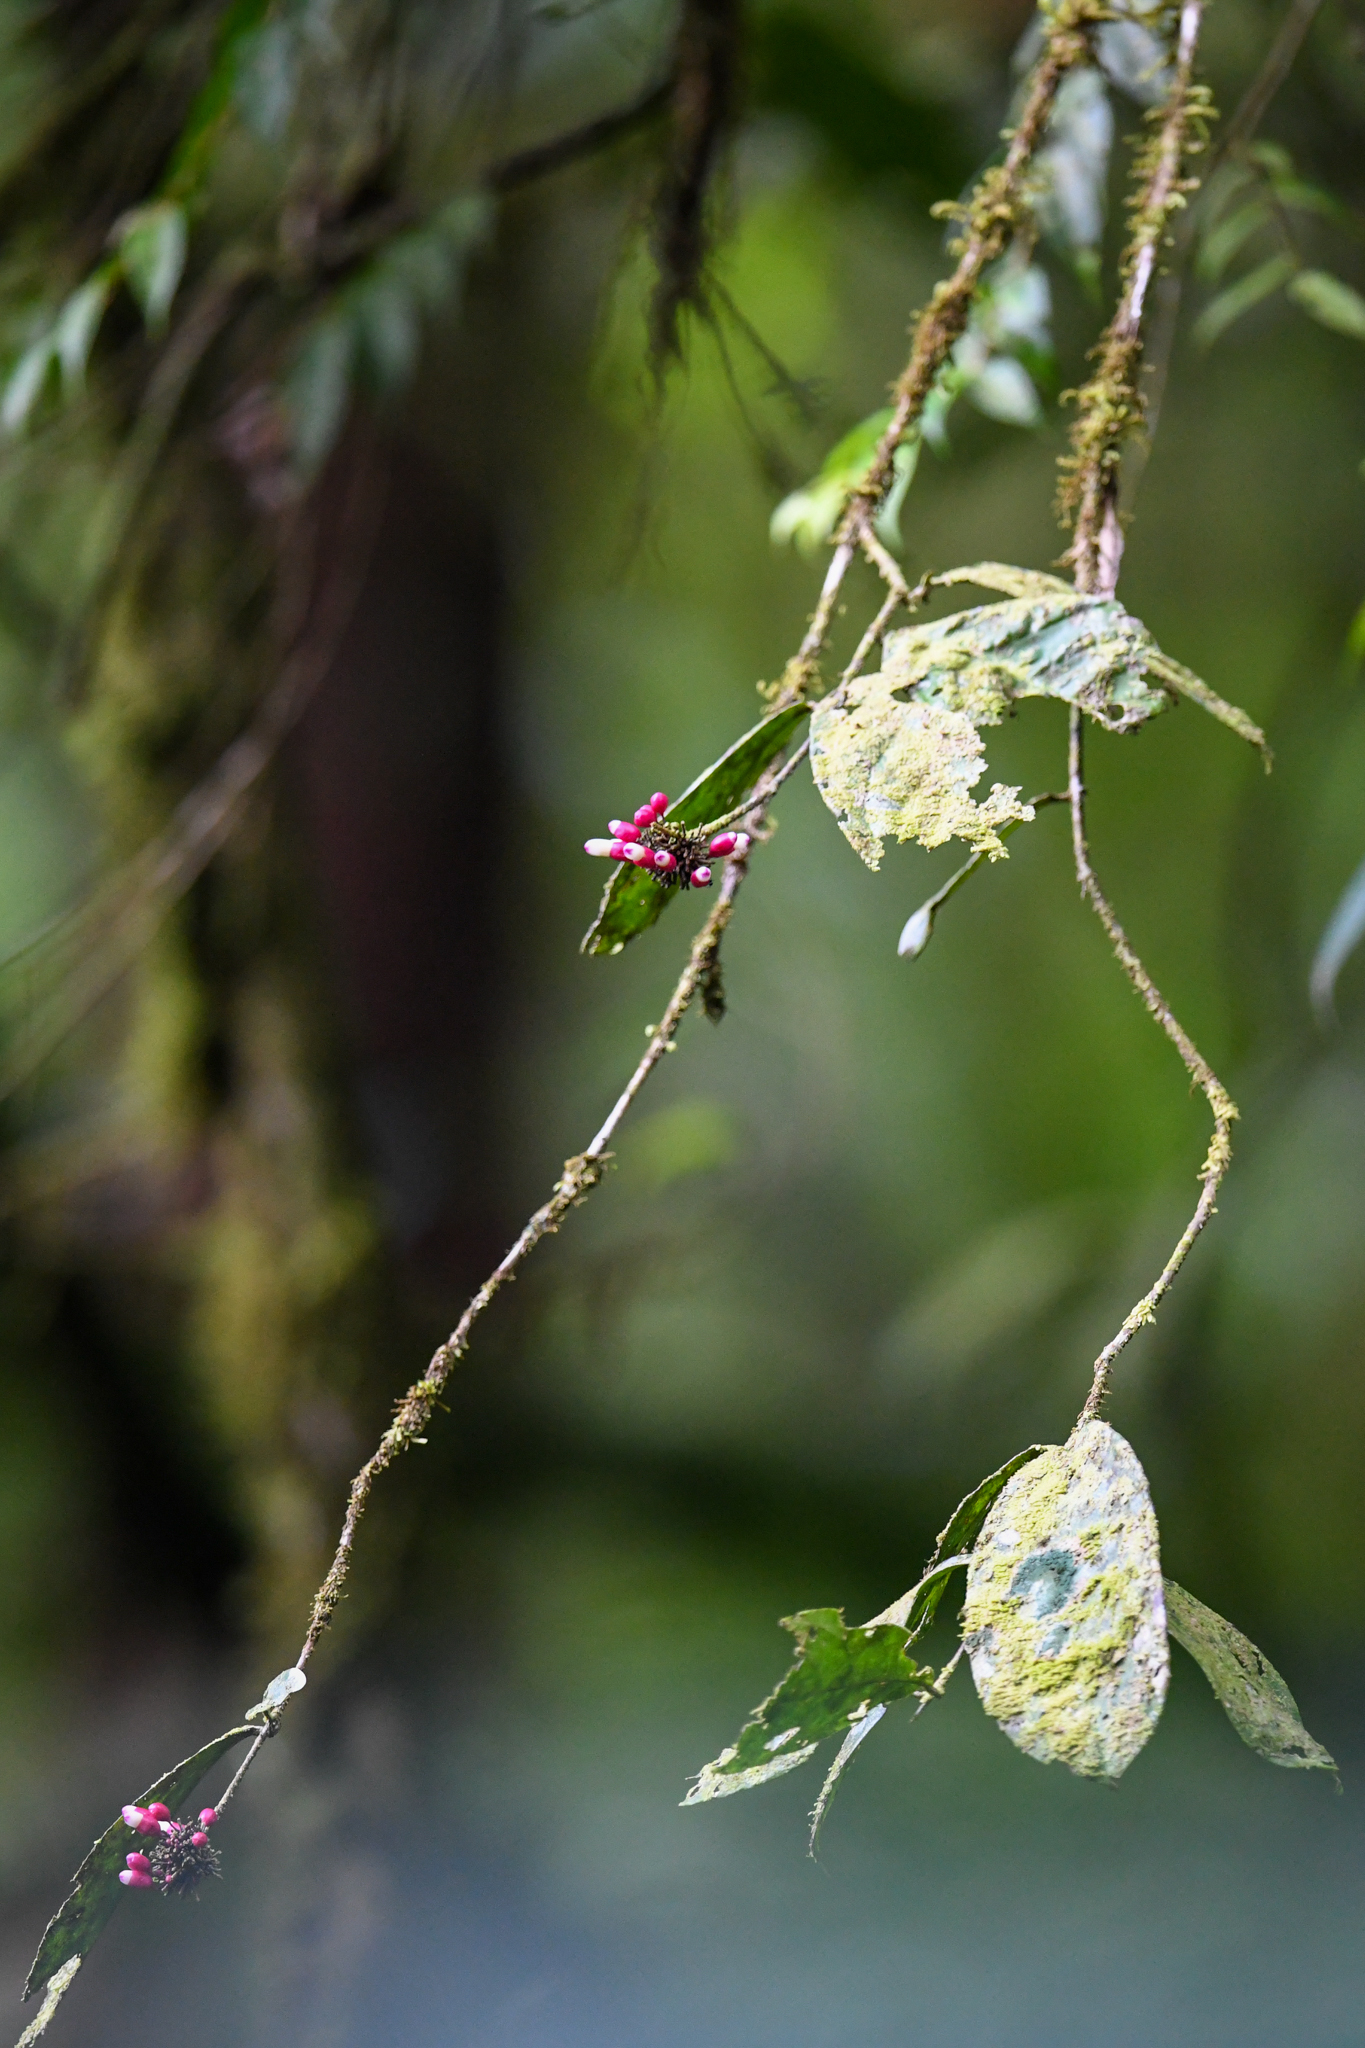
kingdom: Plantae
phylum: Tracheophyta
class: Magnoliopsida
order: Lamiales
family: Schlegeliaceae
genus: Schlegelia
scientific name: Schlegelia fastigiata
